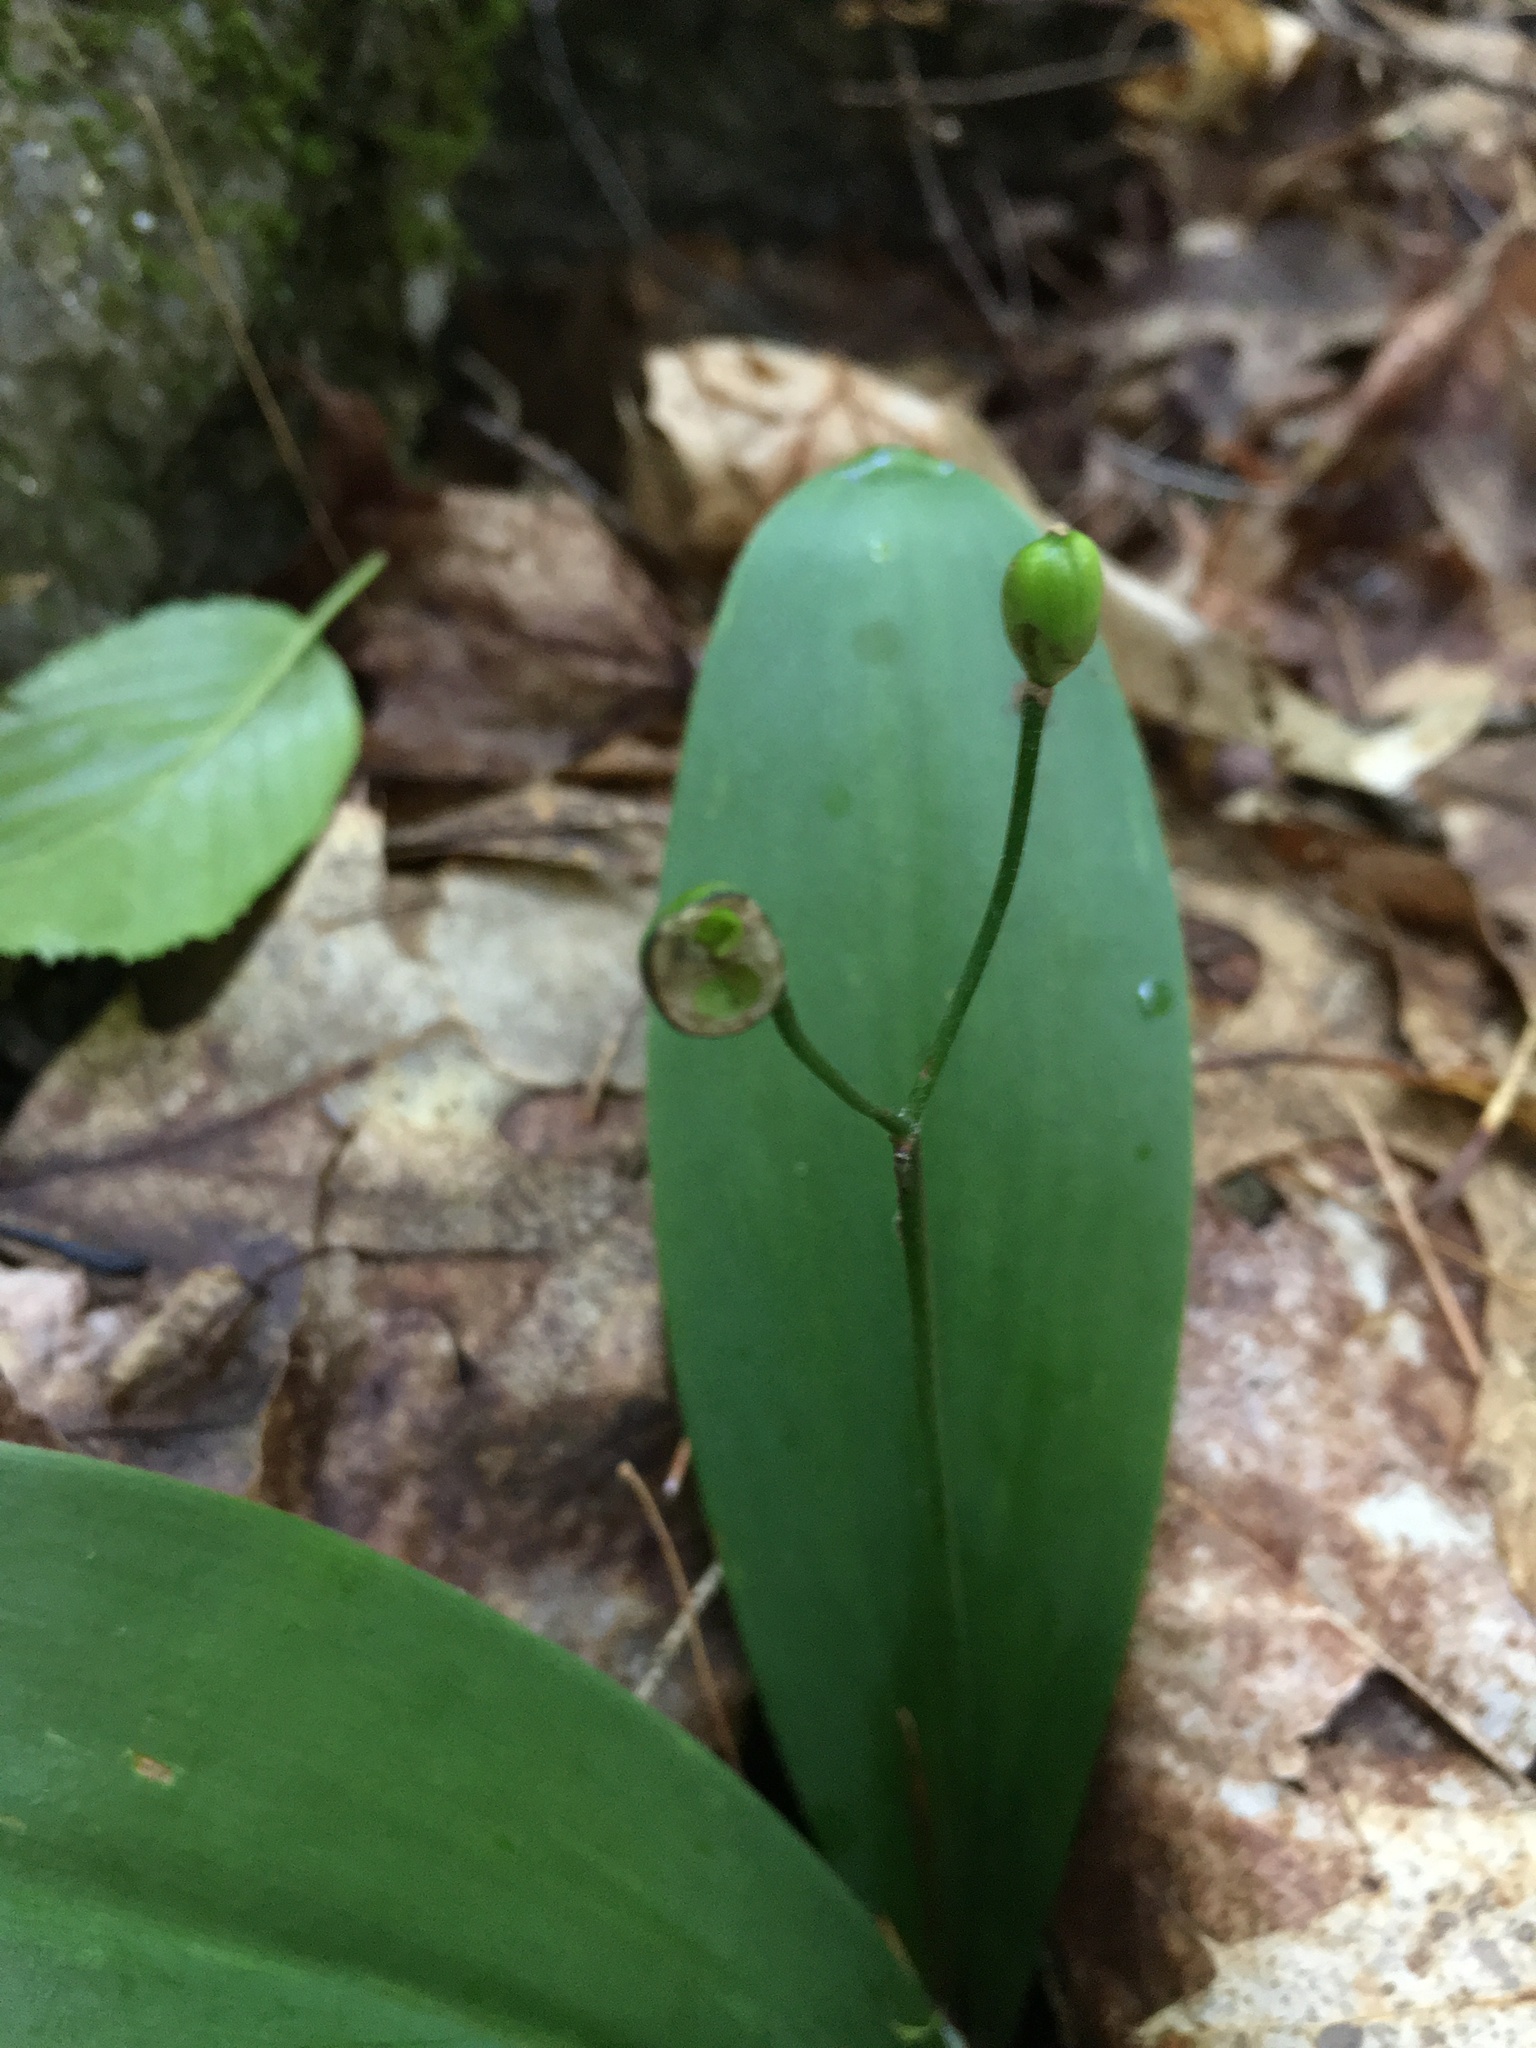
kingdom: Plantae
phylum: Tracheophyta
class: Liliopsida
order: Liliales
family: Liliaceae
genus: Clintonia
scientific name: Clintonia borealis
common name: Yellow clintonia
